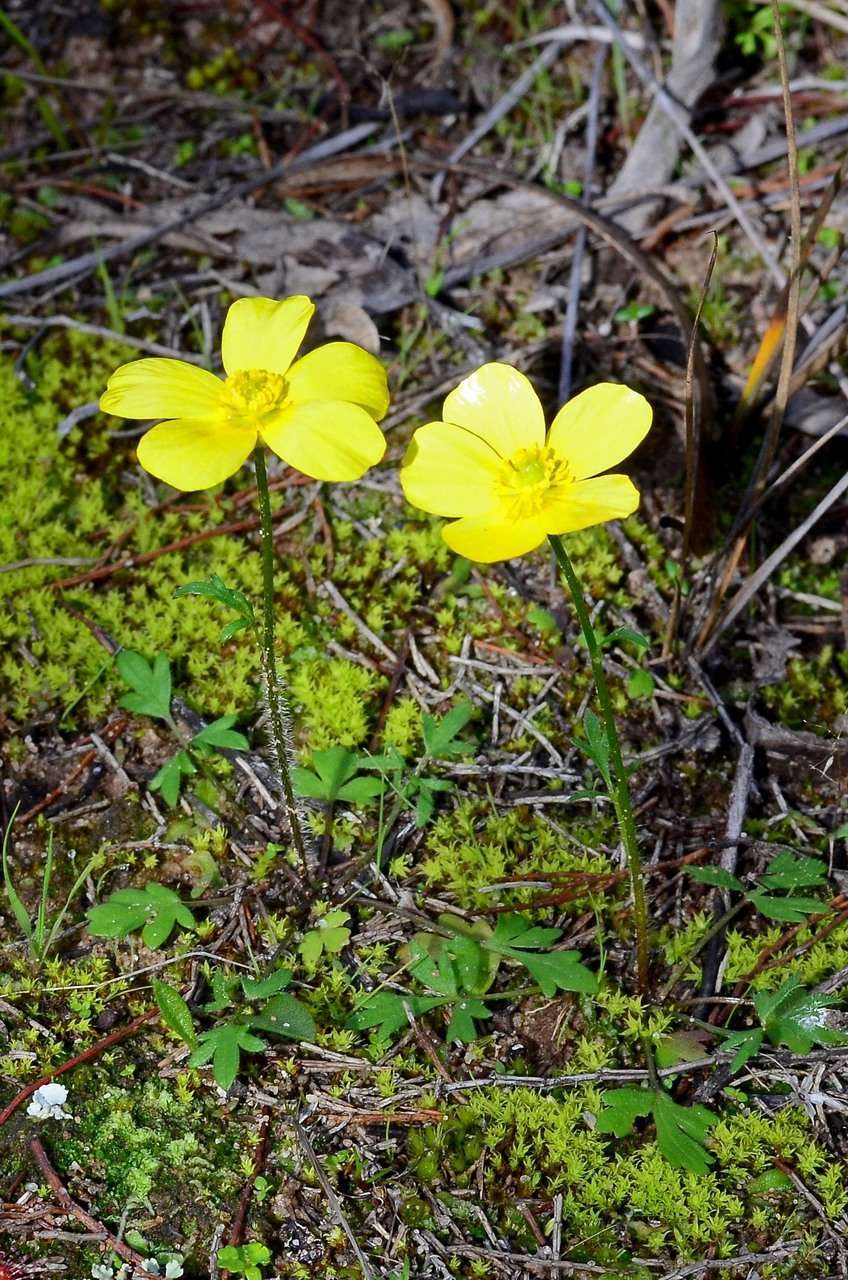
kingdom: Plantae
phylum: Tracheophyta
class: Magnoliopsida
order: Ranunculales
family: Ranunculaceae
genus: Ranunculus
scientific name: Ranunculus pachycarpus
